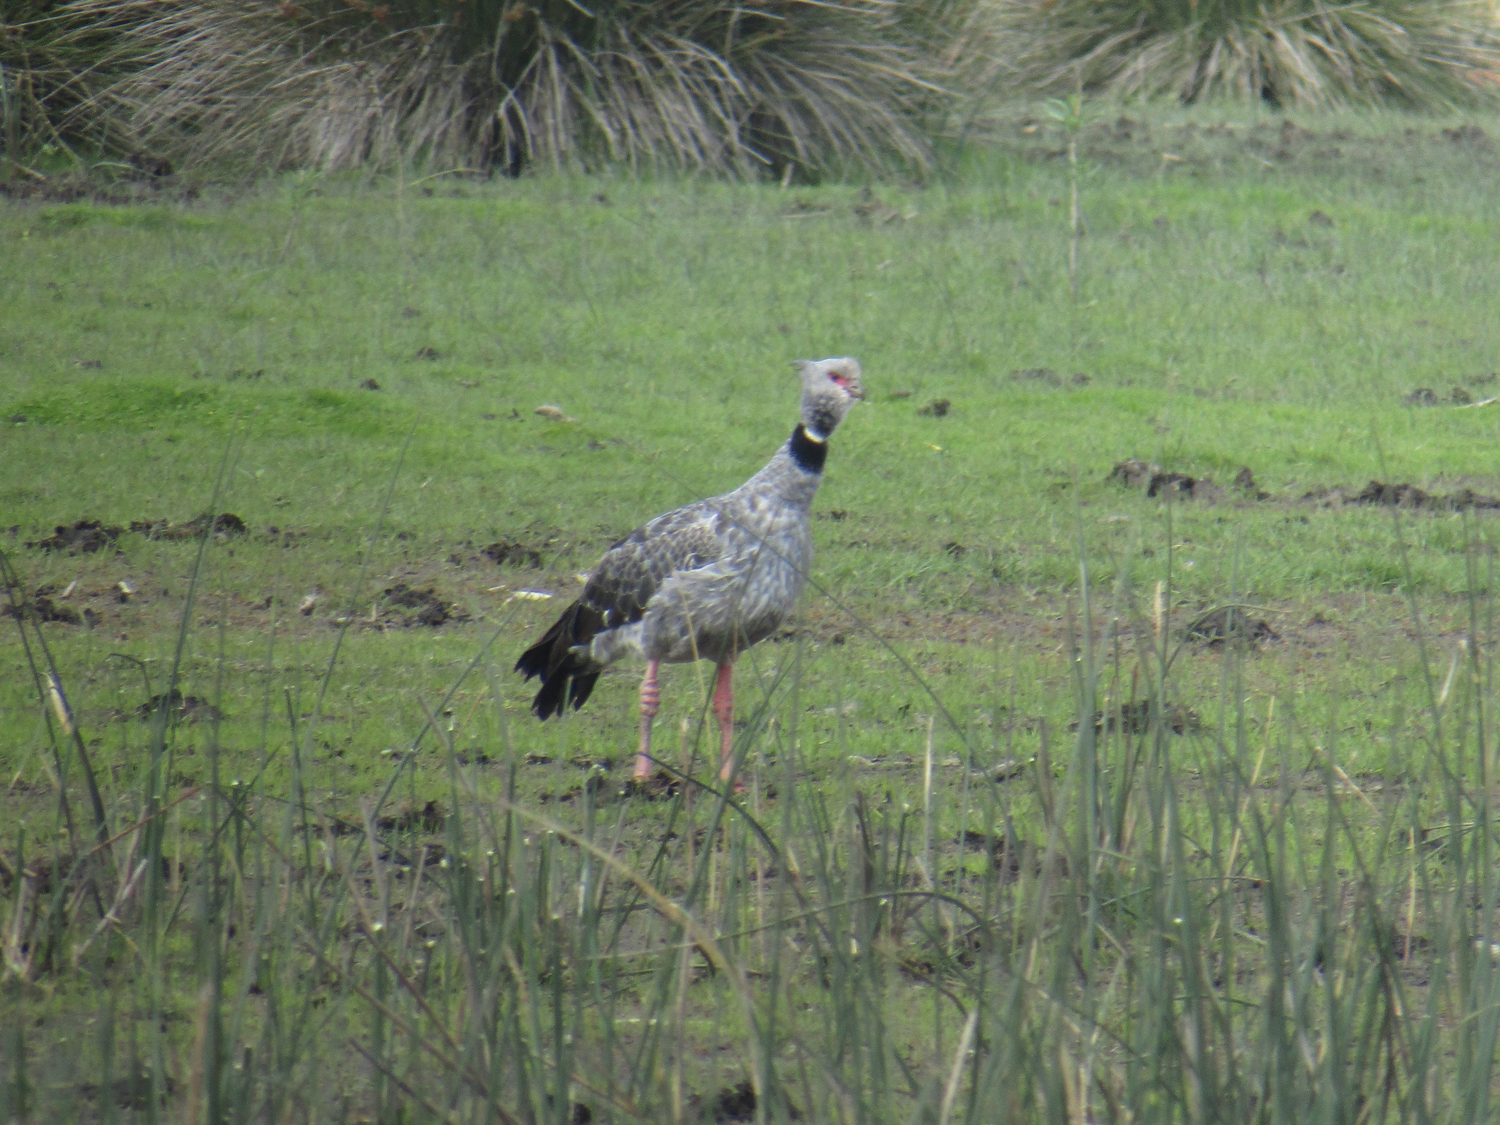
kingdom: Animalia
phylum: Chordata
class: Aves
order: Anseriformes
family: Anhimidae
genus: Chauna
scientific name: Chauna torquata
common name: Southern screamer
